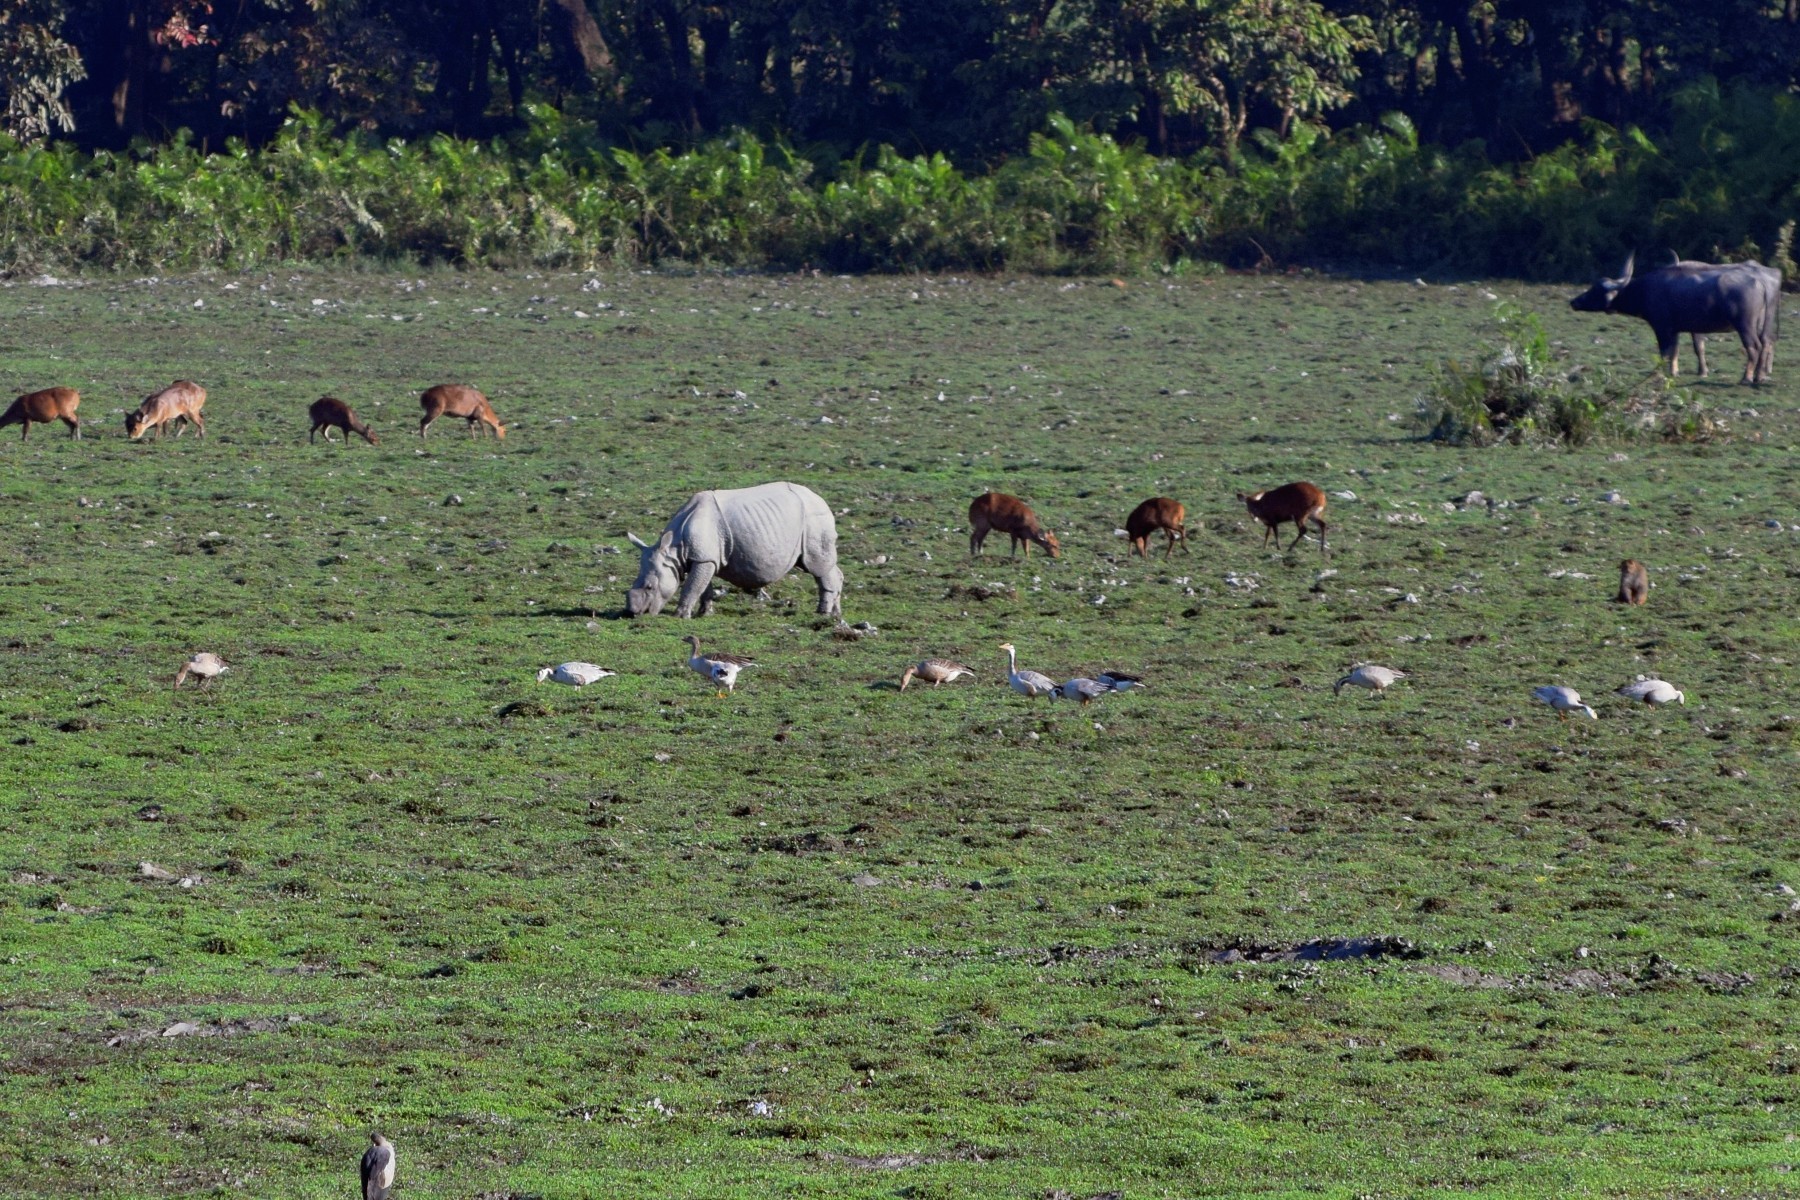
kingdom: Animalia
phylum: Chordata
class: Mammalia
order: Perissodactyla
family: Rhinocerotidae
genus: Rhinoceros
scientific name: Rhinoceros unicornis
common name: Indian rhinoceros
